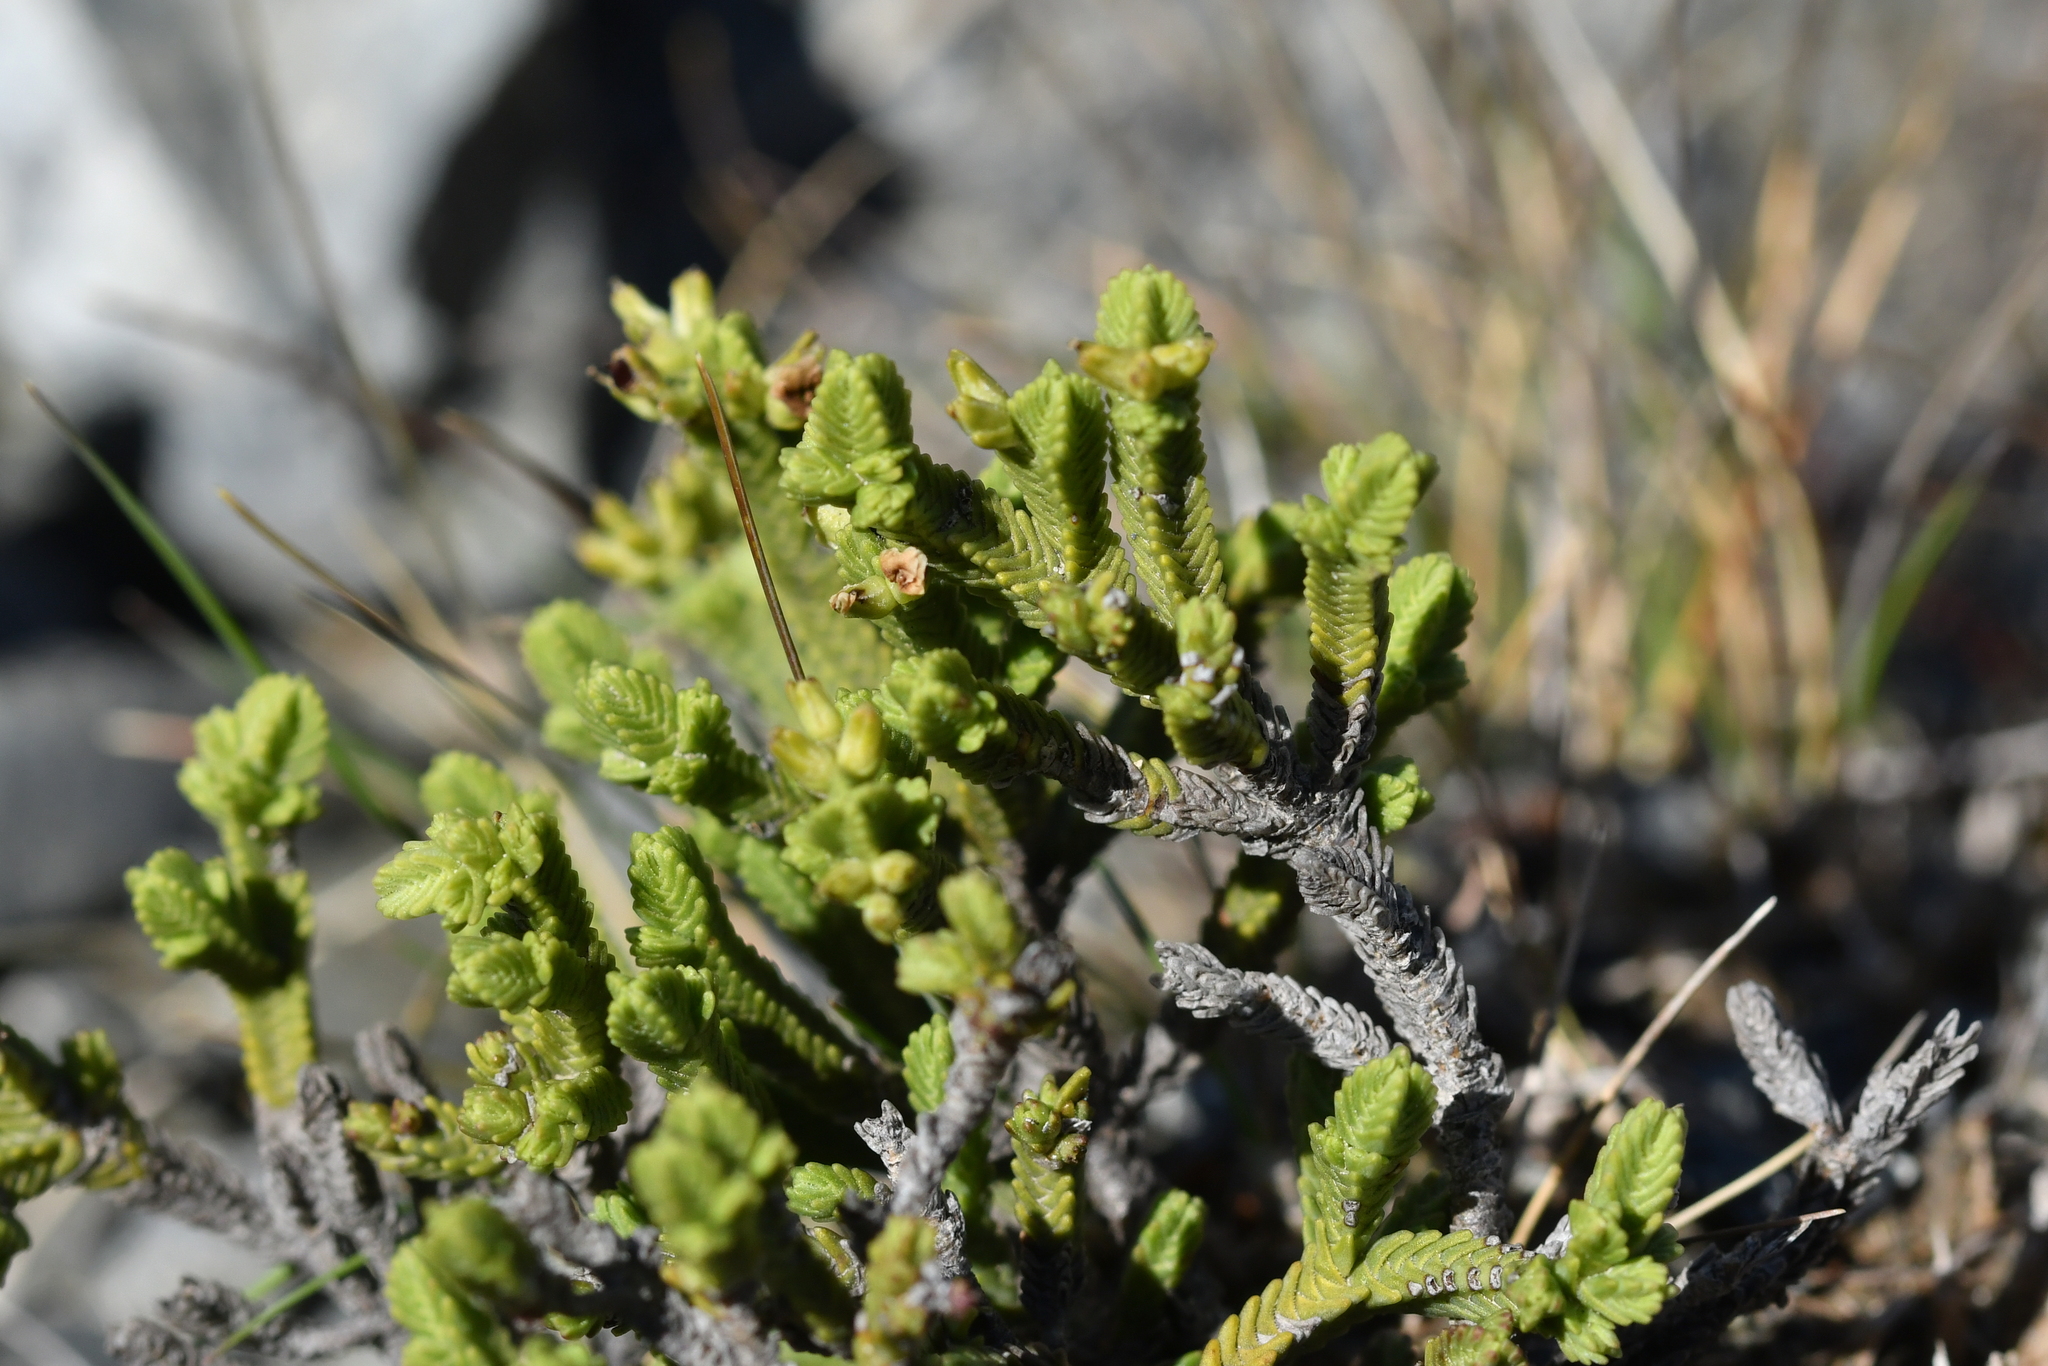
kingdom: Plantae
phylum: Tracheophyta
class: Magnoliopsida
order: Lamiales
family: Plantaginaceae
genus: Veronica
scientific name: Veronica tetrasticha
